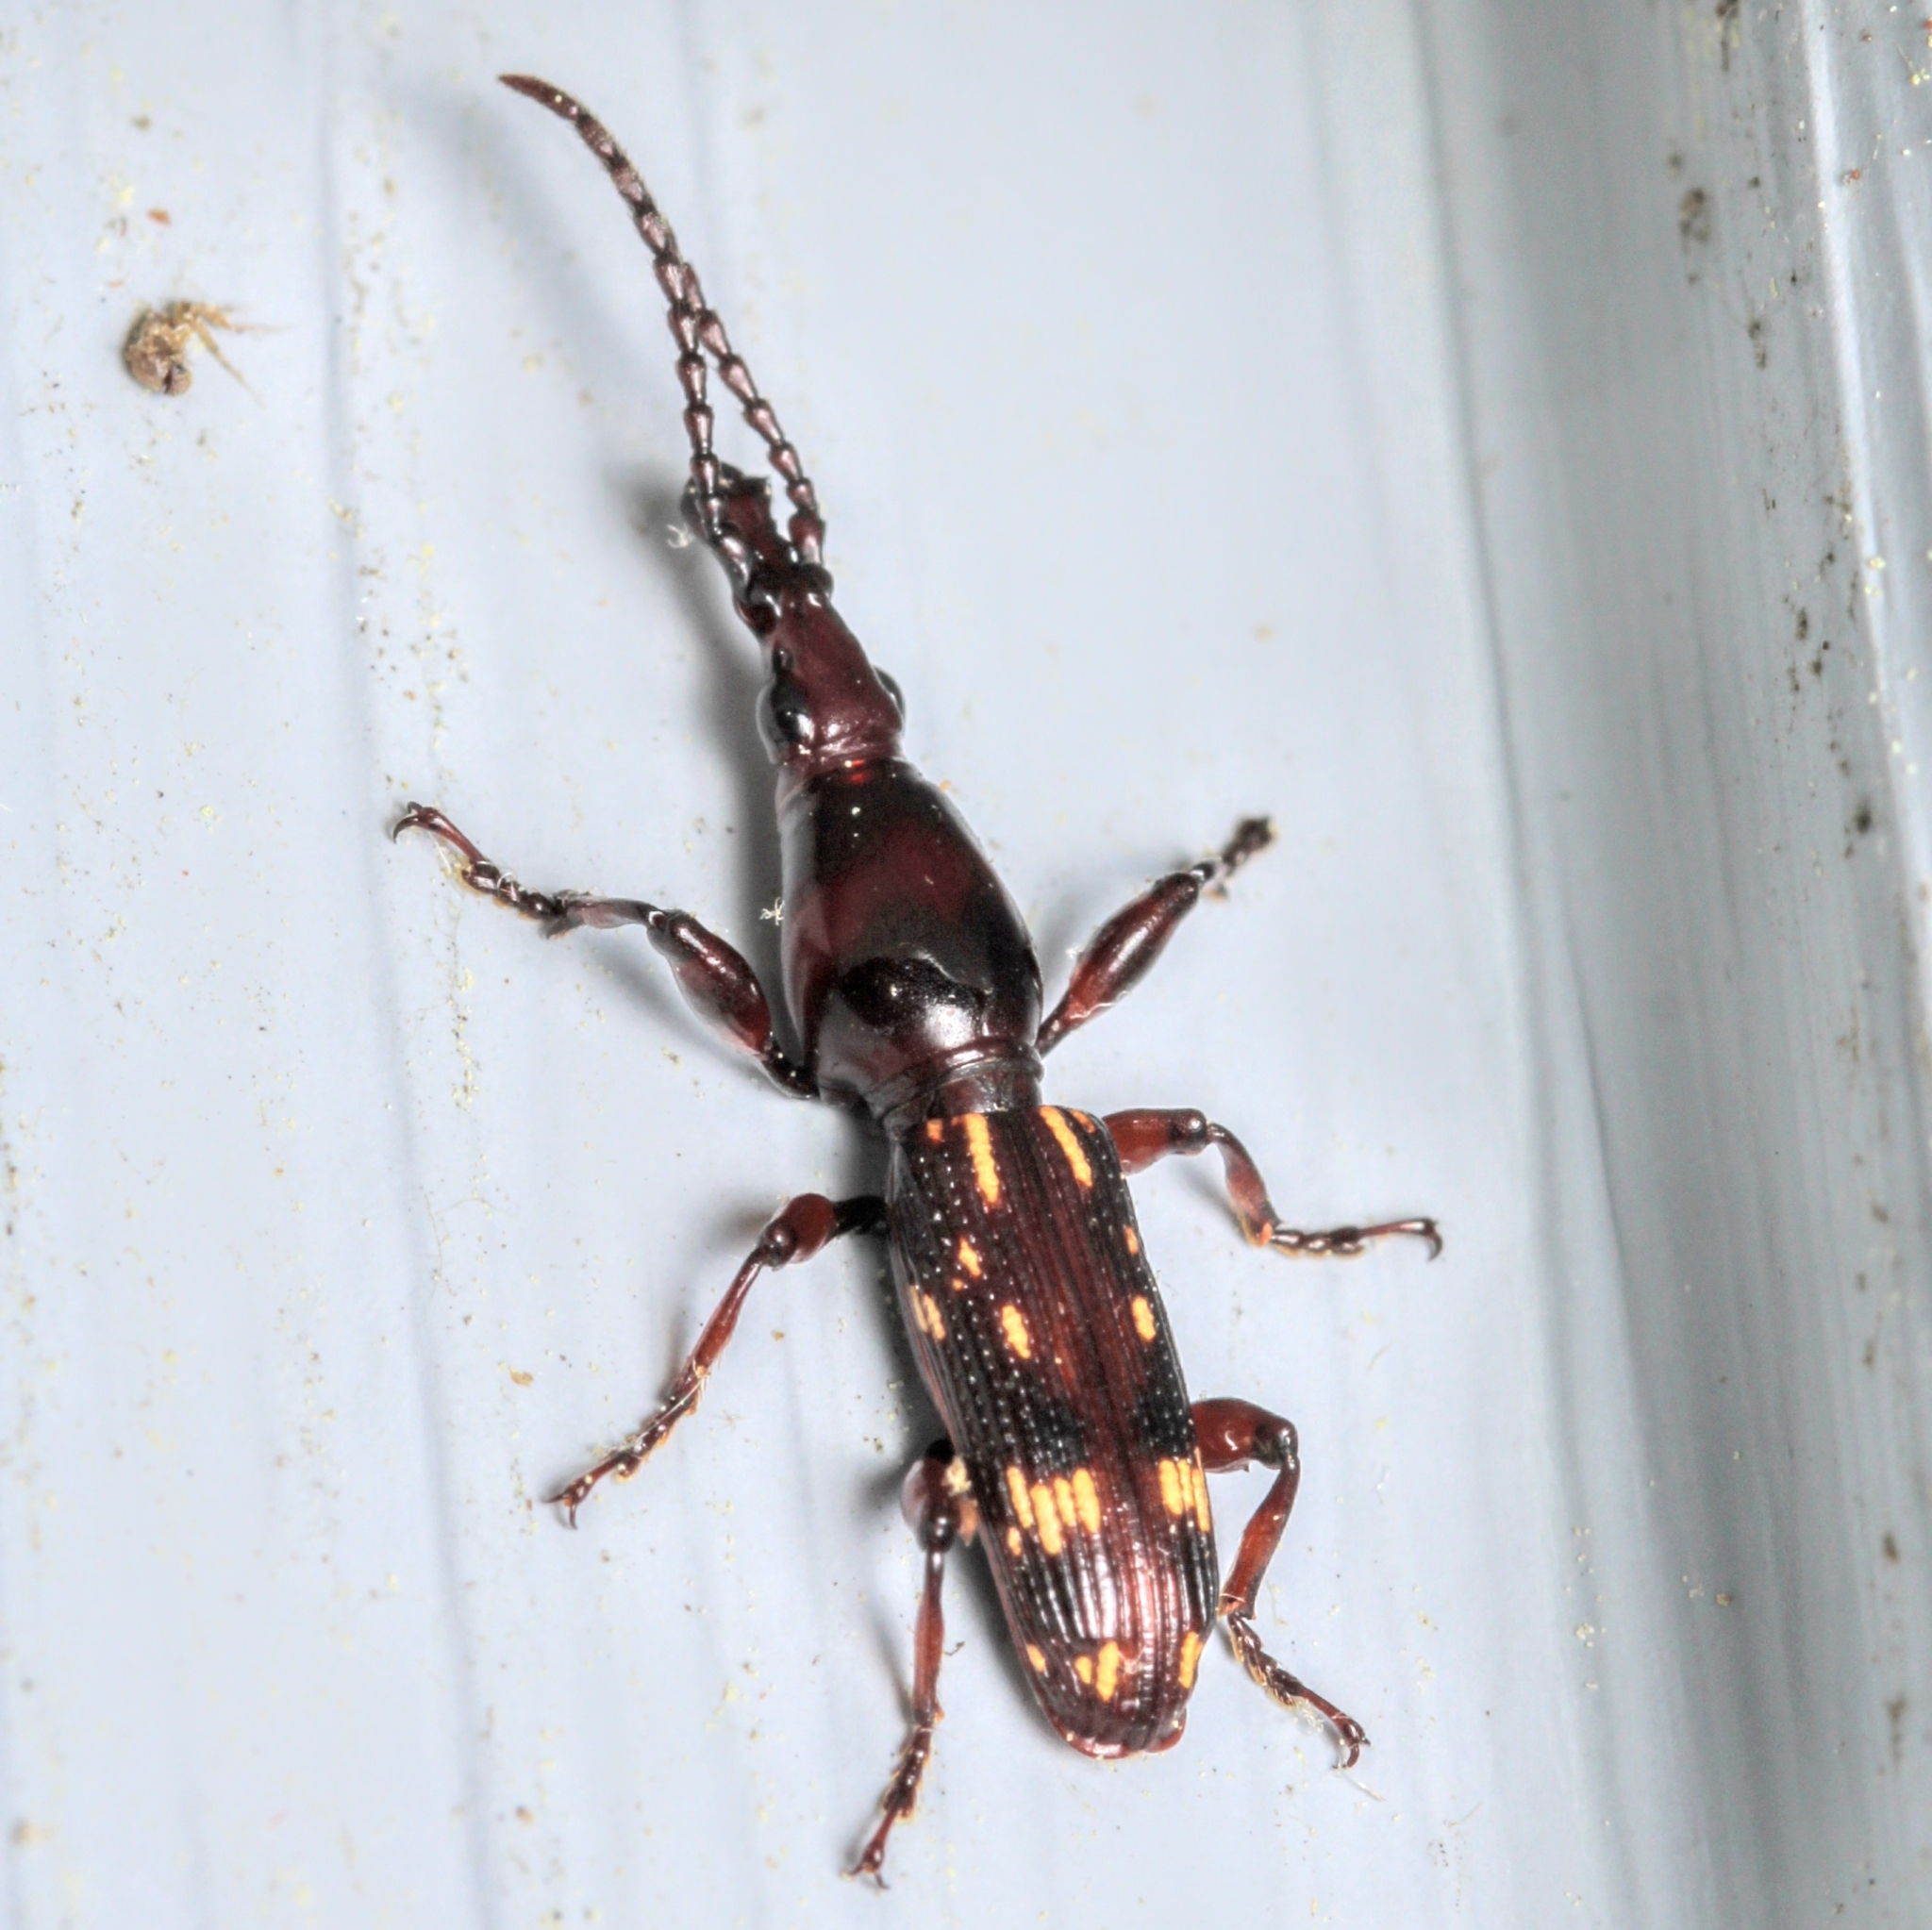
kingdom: Animalia
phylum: Arthropoda
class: Insecta
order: Coleoptera
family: Brentidae
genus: Arrenodes
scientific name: Arrenodes minutus
